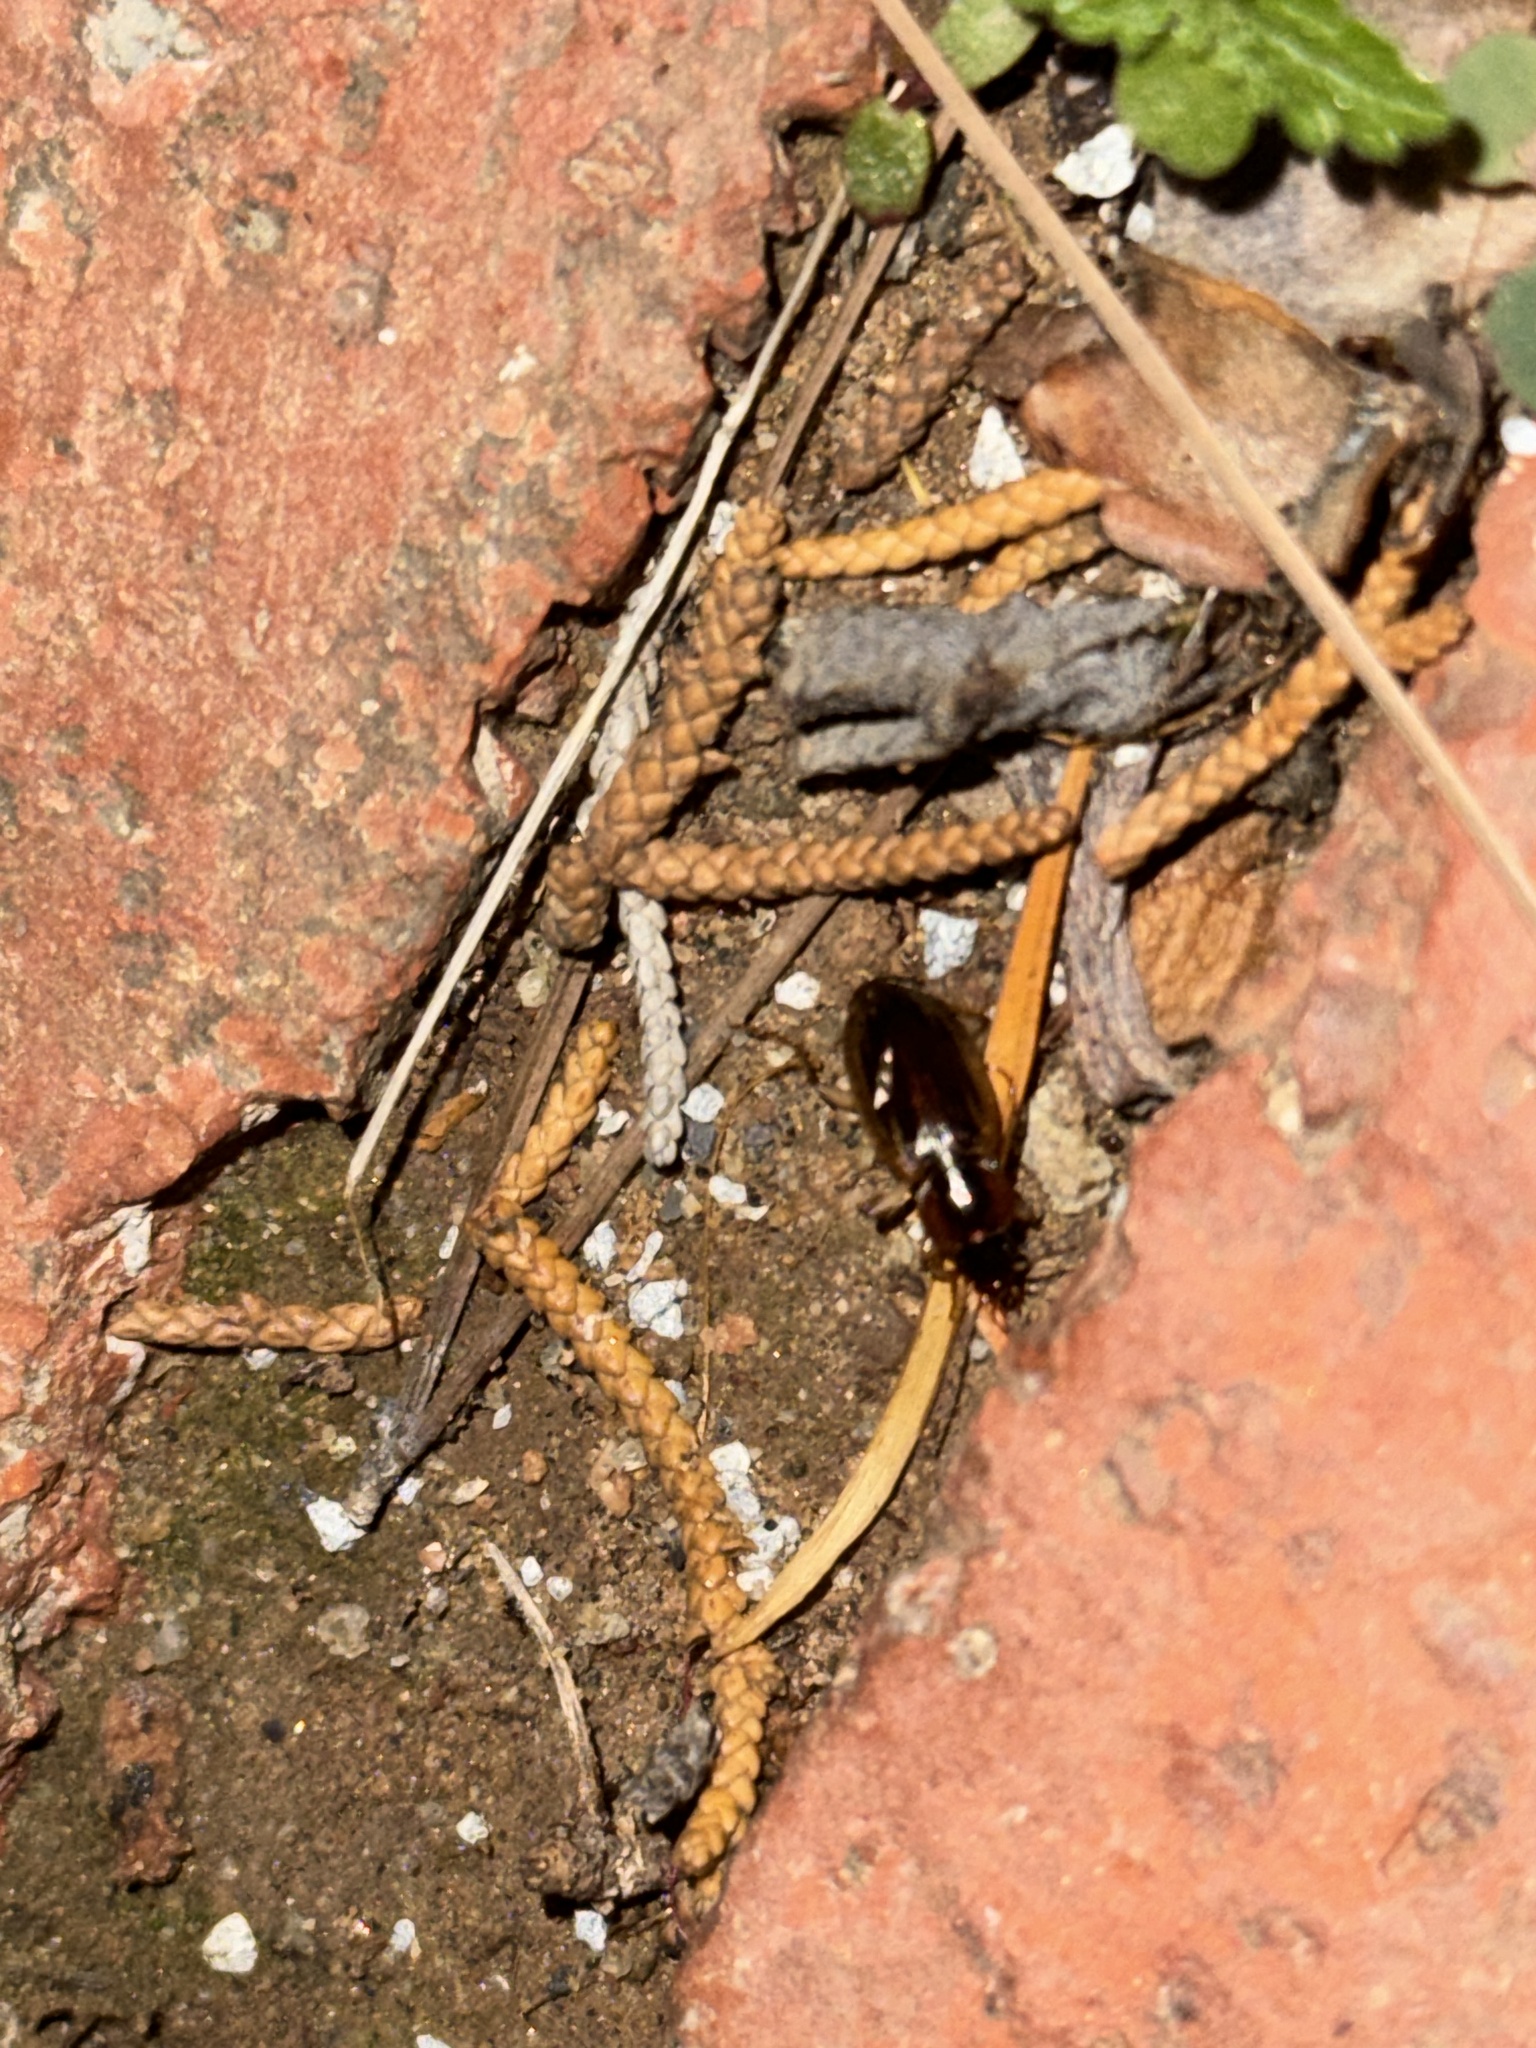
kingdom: Animalia
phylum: Arthropoda
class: Insecta
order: Coleoptera
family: Carabidae
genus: Tanystoma
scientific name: Tanystoma maculicolle
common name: Tule beetle
